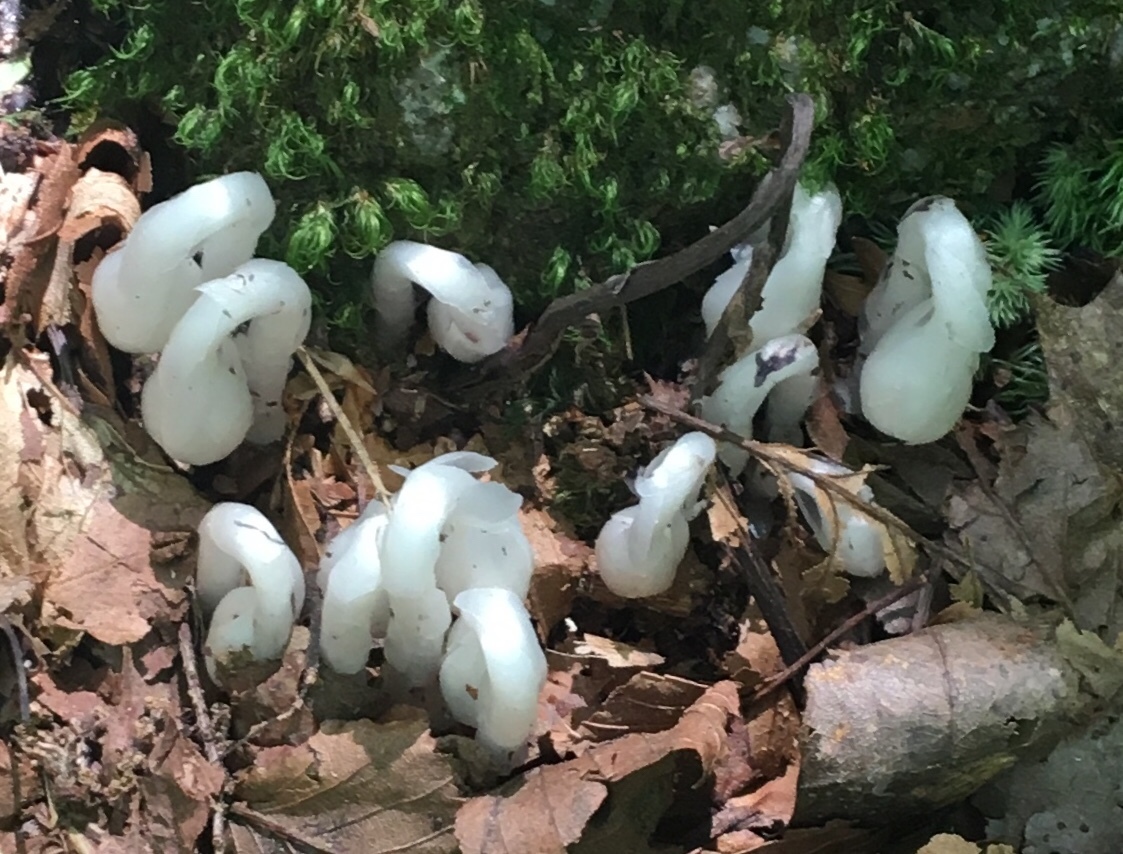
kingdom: Plantae
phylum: Tracheophyta
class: Magnoliopsida
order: Ericales
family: Ericaceae
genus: Monotropa
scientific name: Monotropa uniflora
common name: Convulsion root
